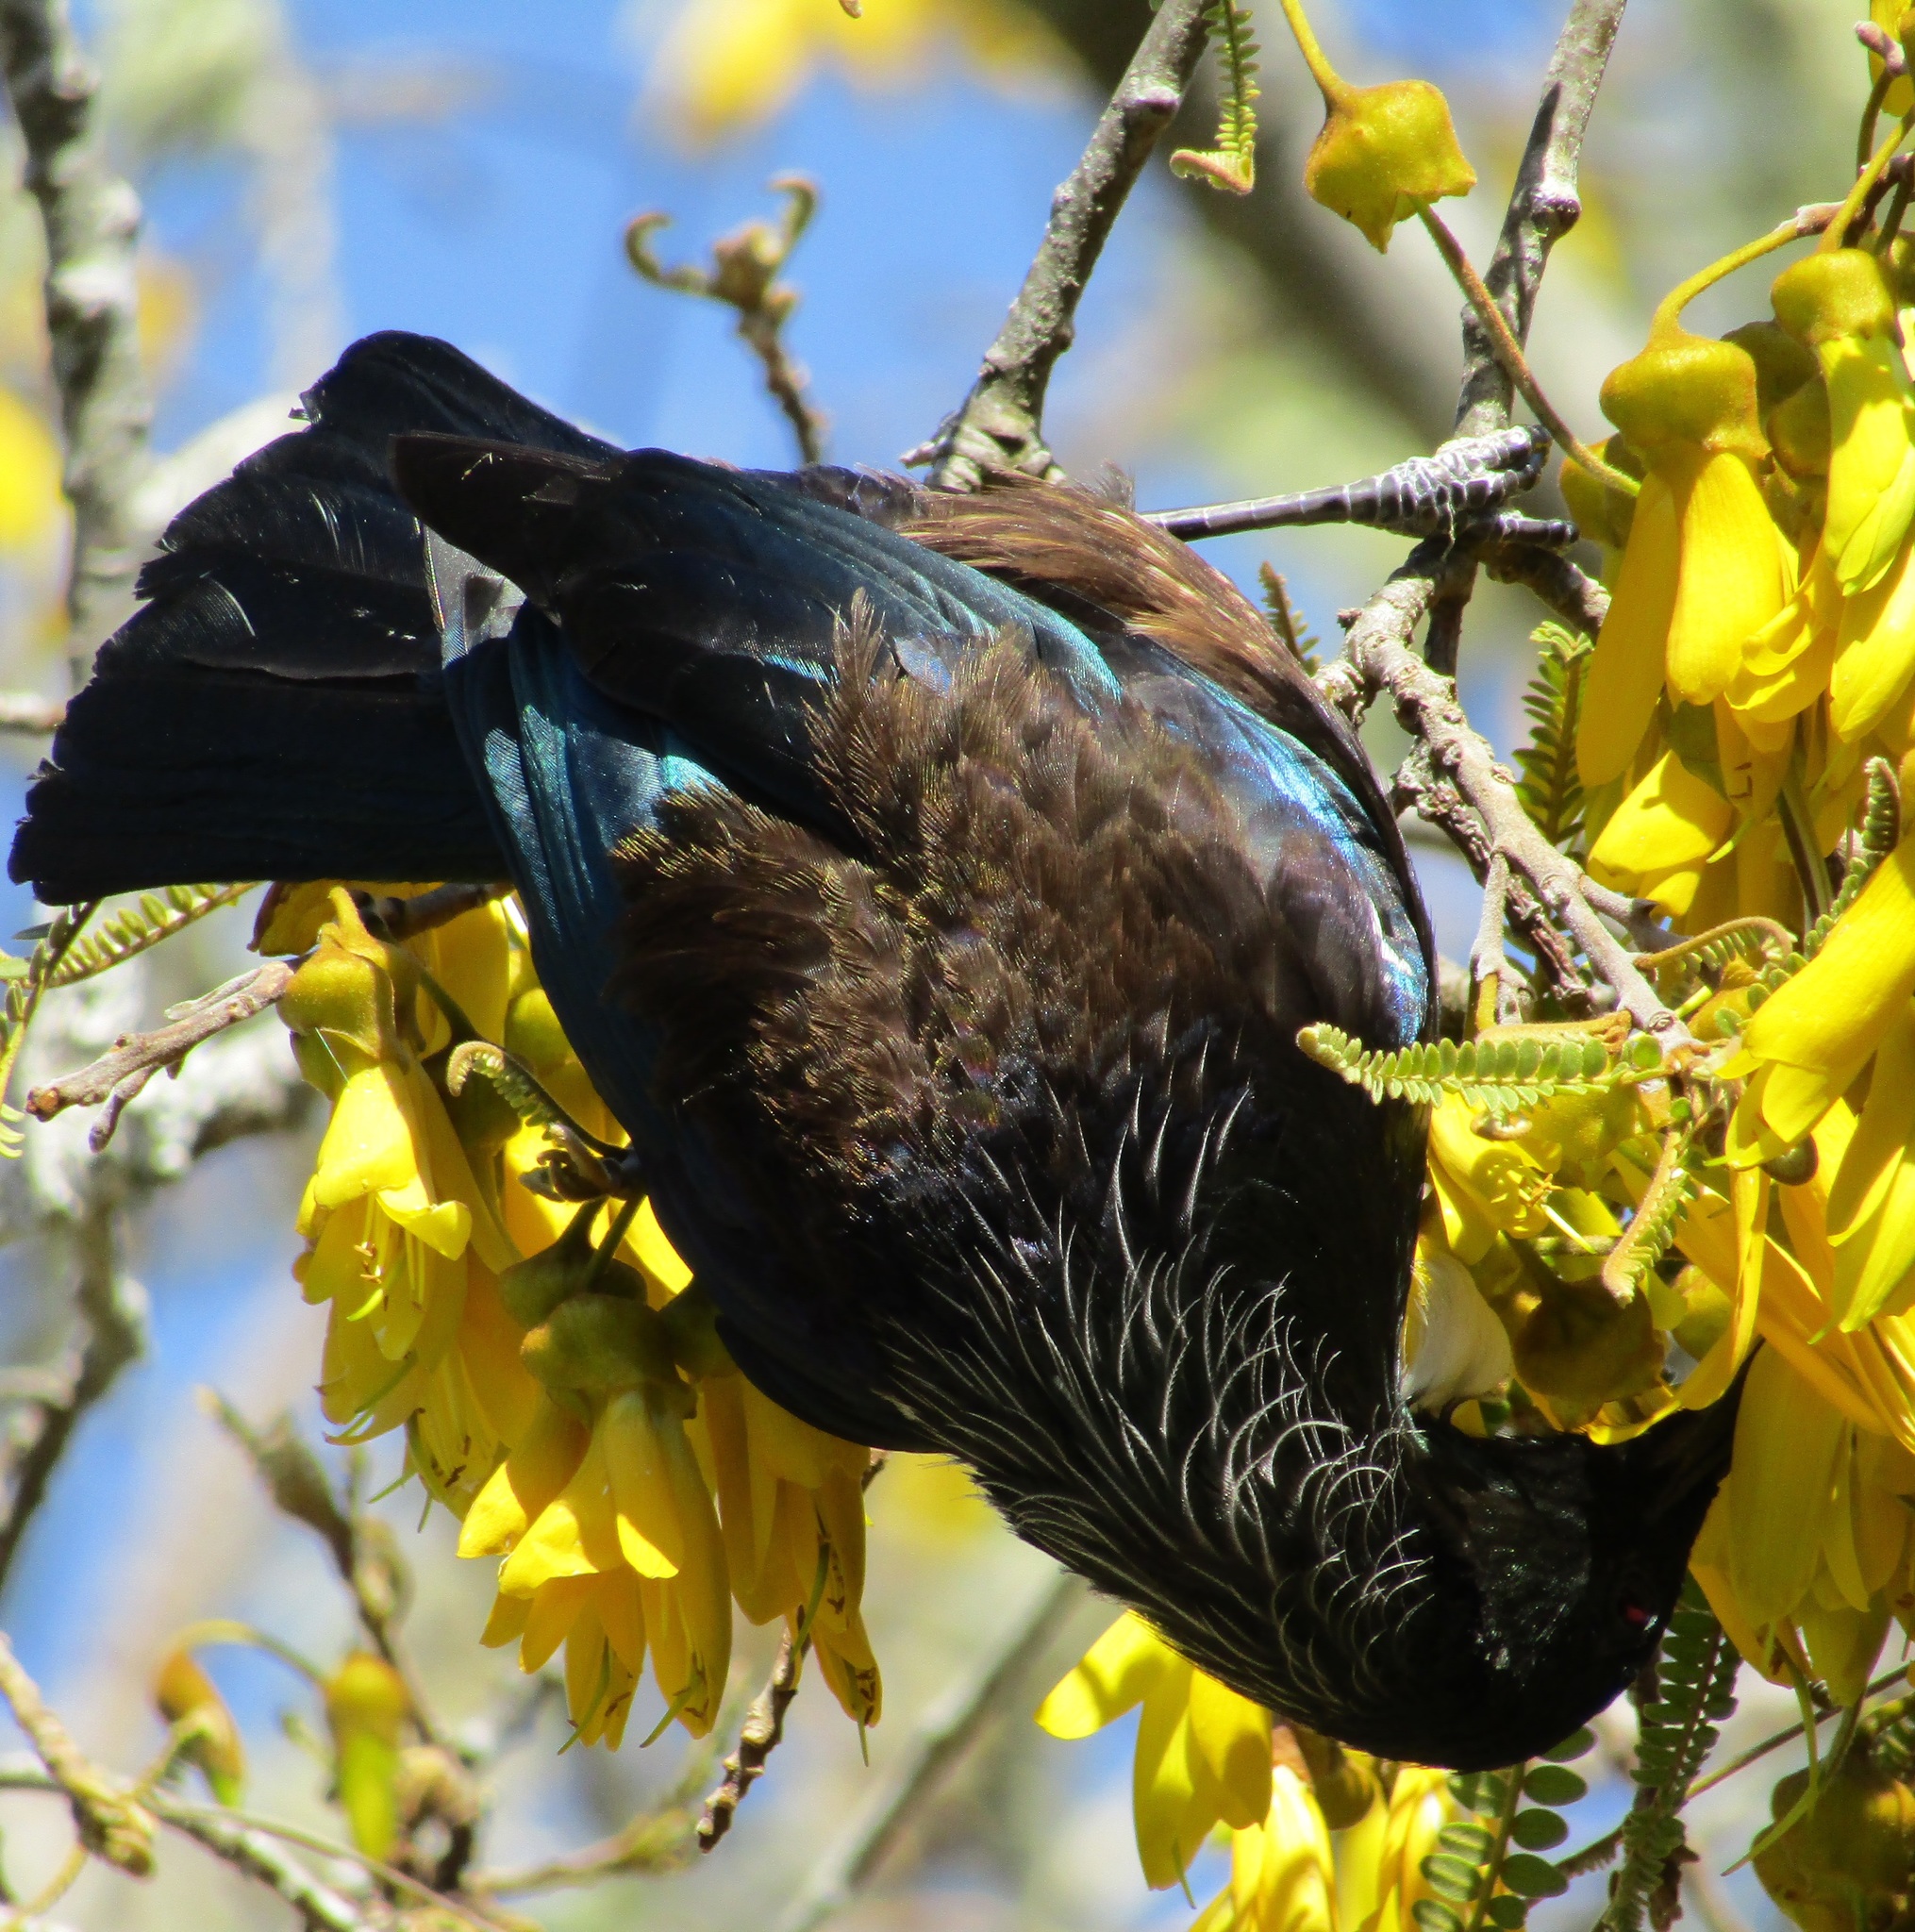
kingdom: Animalia
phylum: Chordata
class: Aves
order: Passeriformes
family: Meliphagidae
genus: Prosthemadera
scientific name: Prosthemadera novaeseelandiae
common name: Tui
